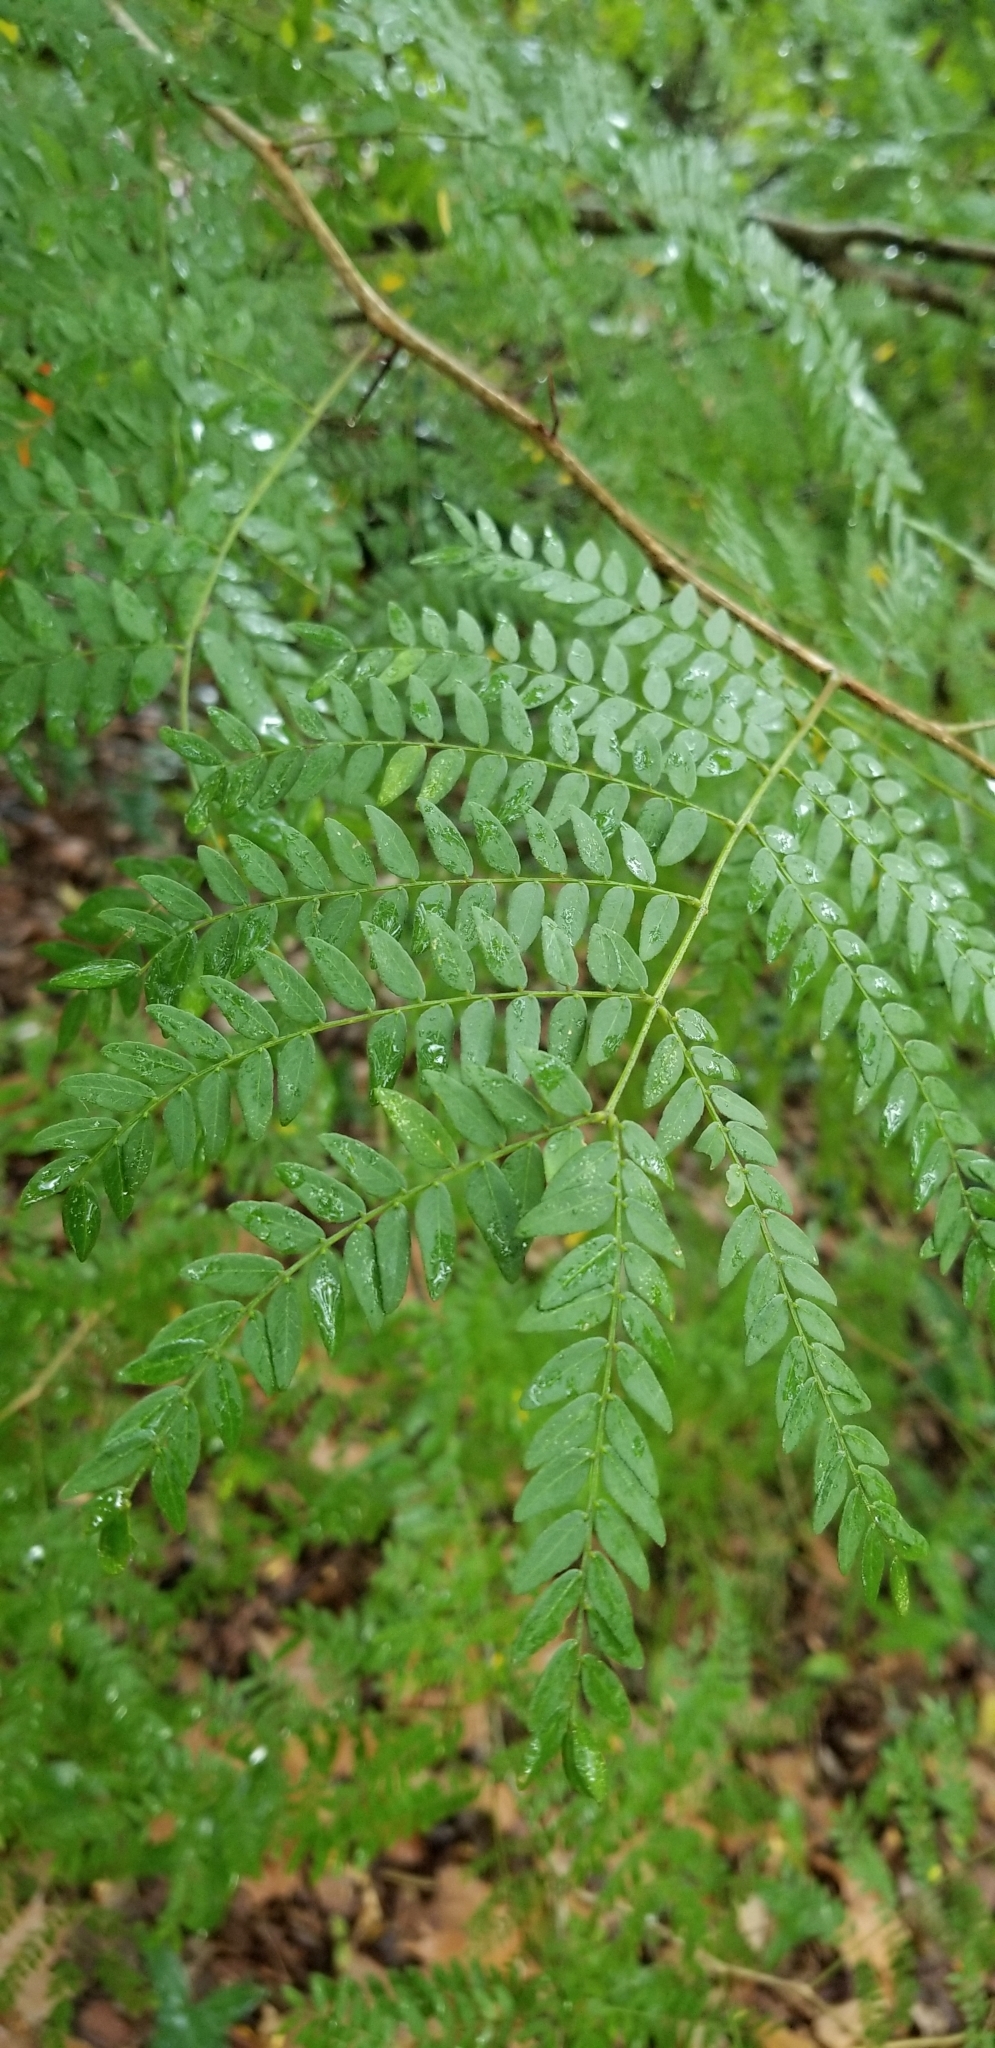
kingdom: Plantae
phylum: Tracheophyta
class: Magnoliopsida
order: Fabales
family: Fabaceae
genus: Gleditsia
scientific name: Gleditsia triacanthos
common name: Common honeylocust
